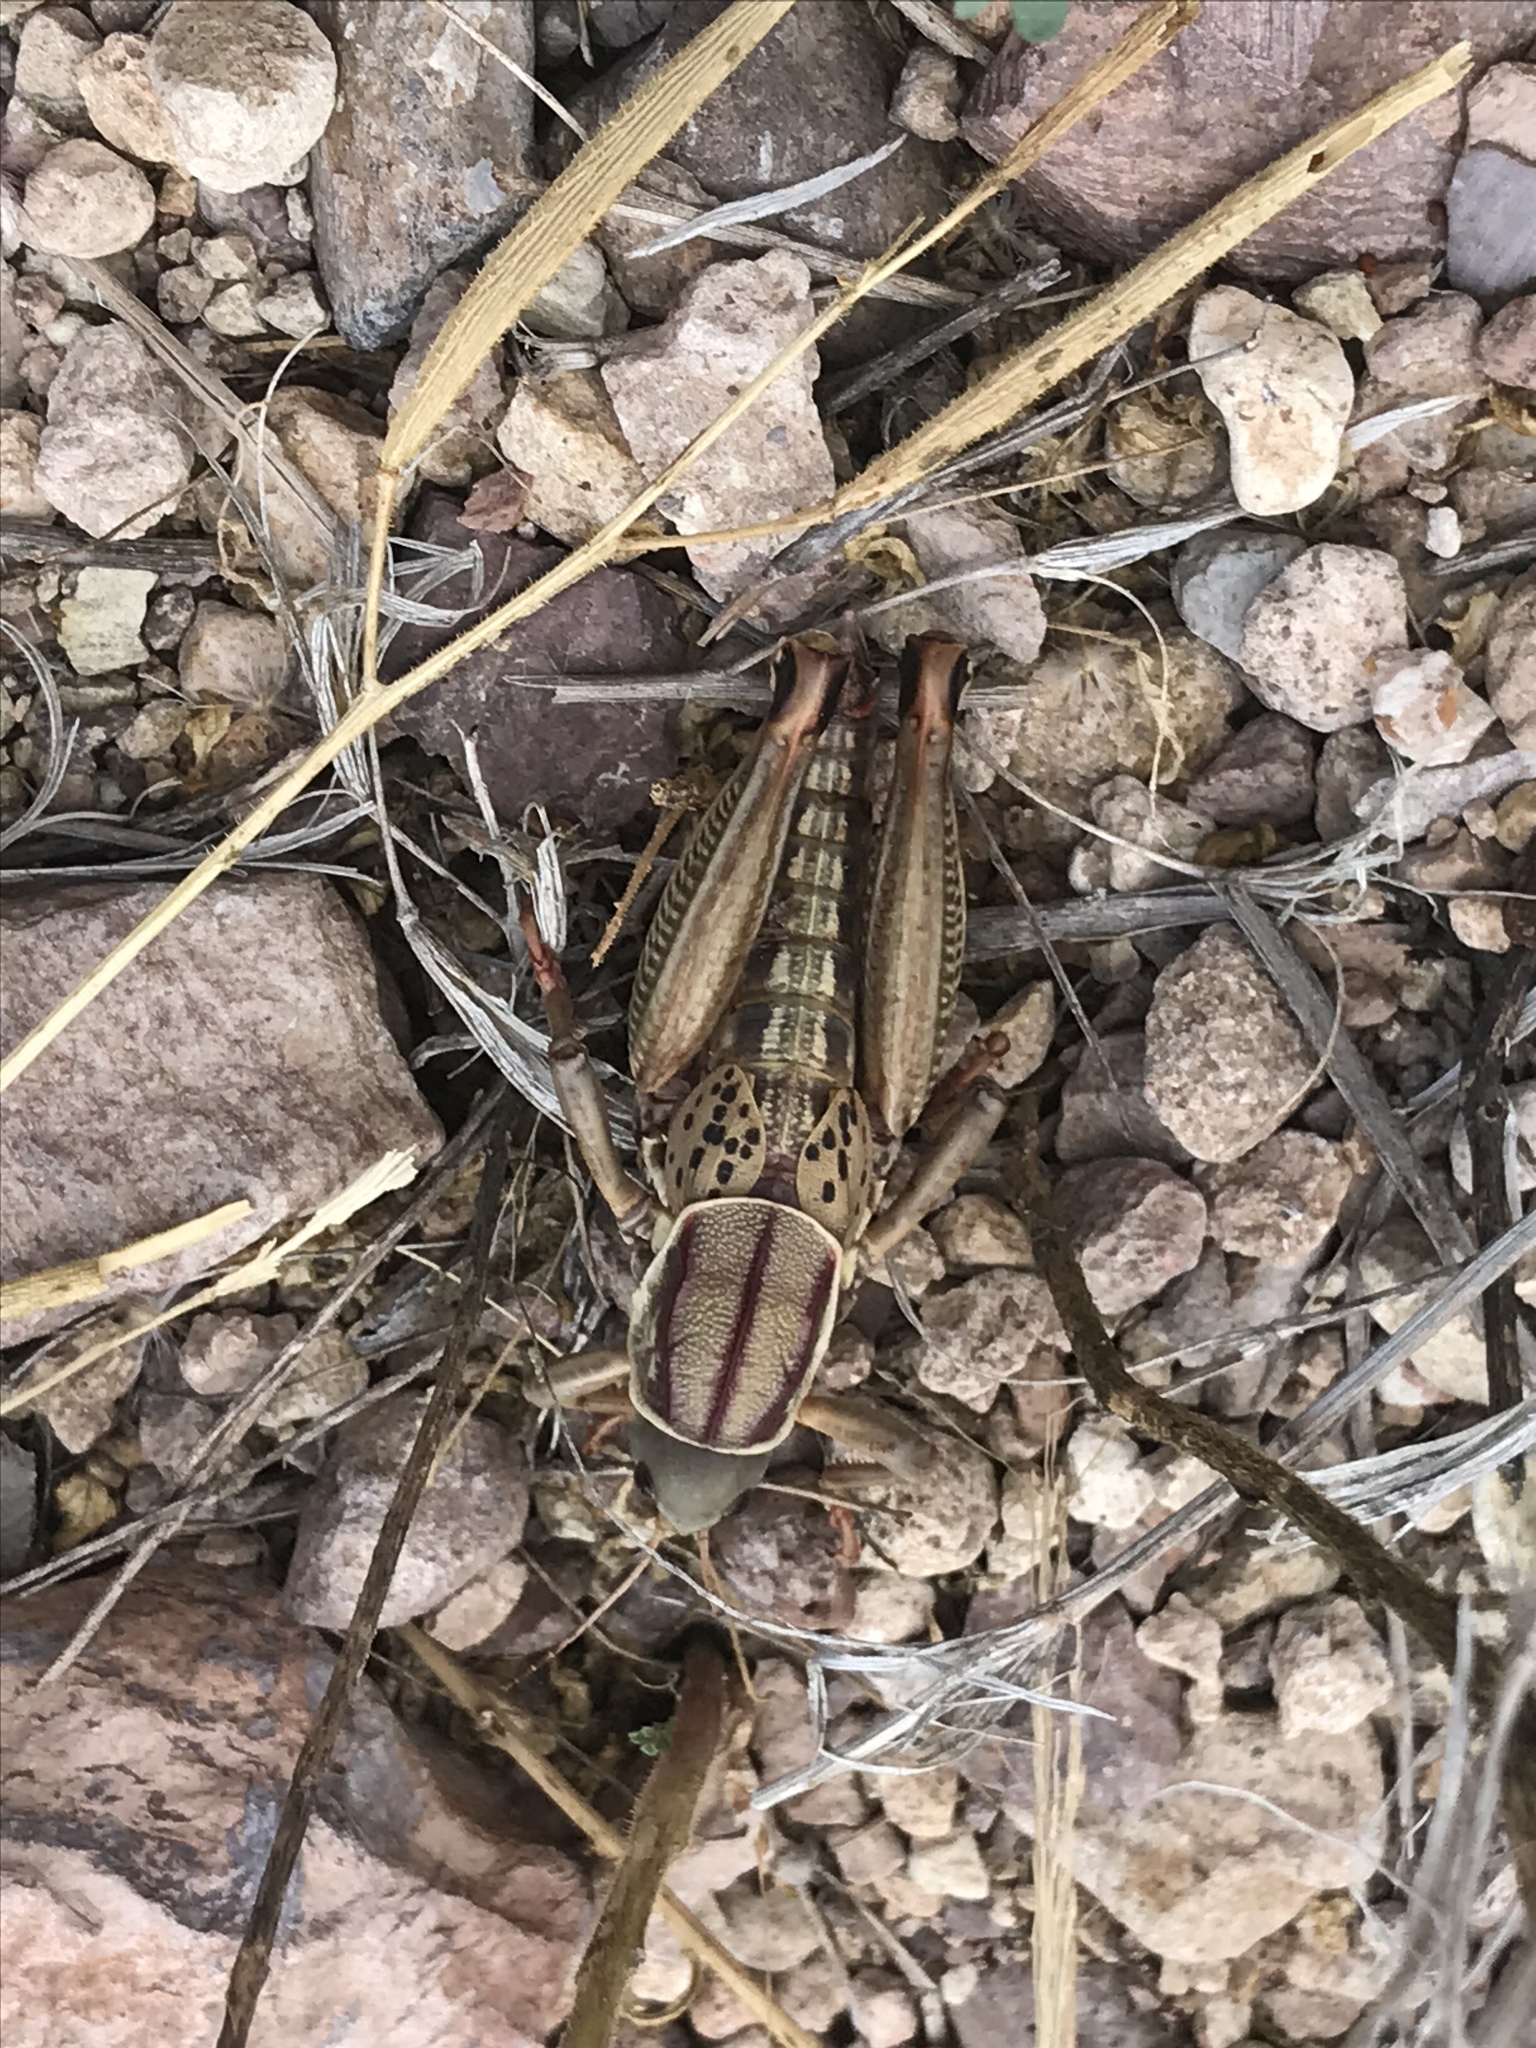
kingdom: Animalia
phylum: Arthropoda
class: Insecta
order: Orthoptera
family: Romaleidae
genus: Brachystola
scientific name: Brachystola magna
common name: Plains lubber grasshopper
